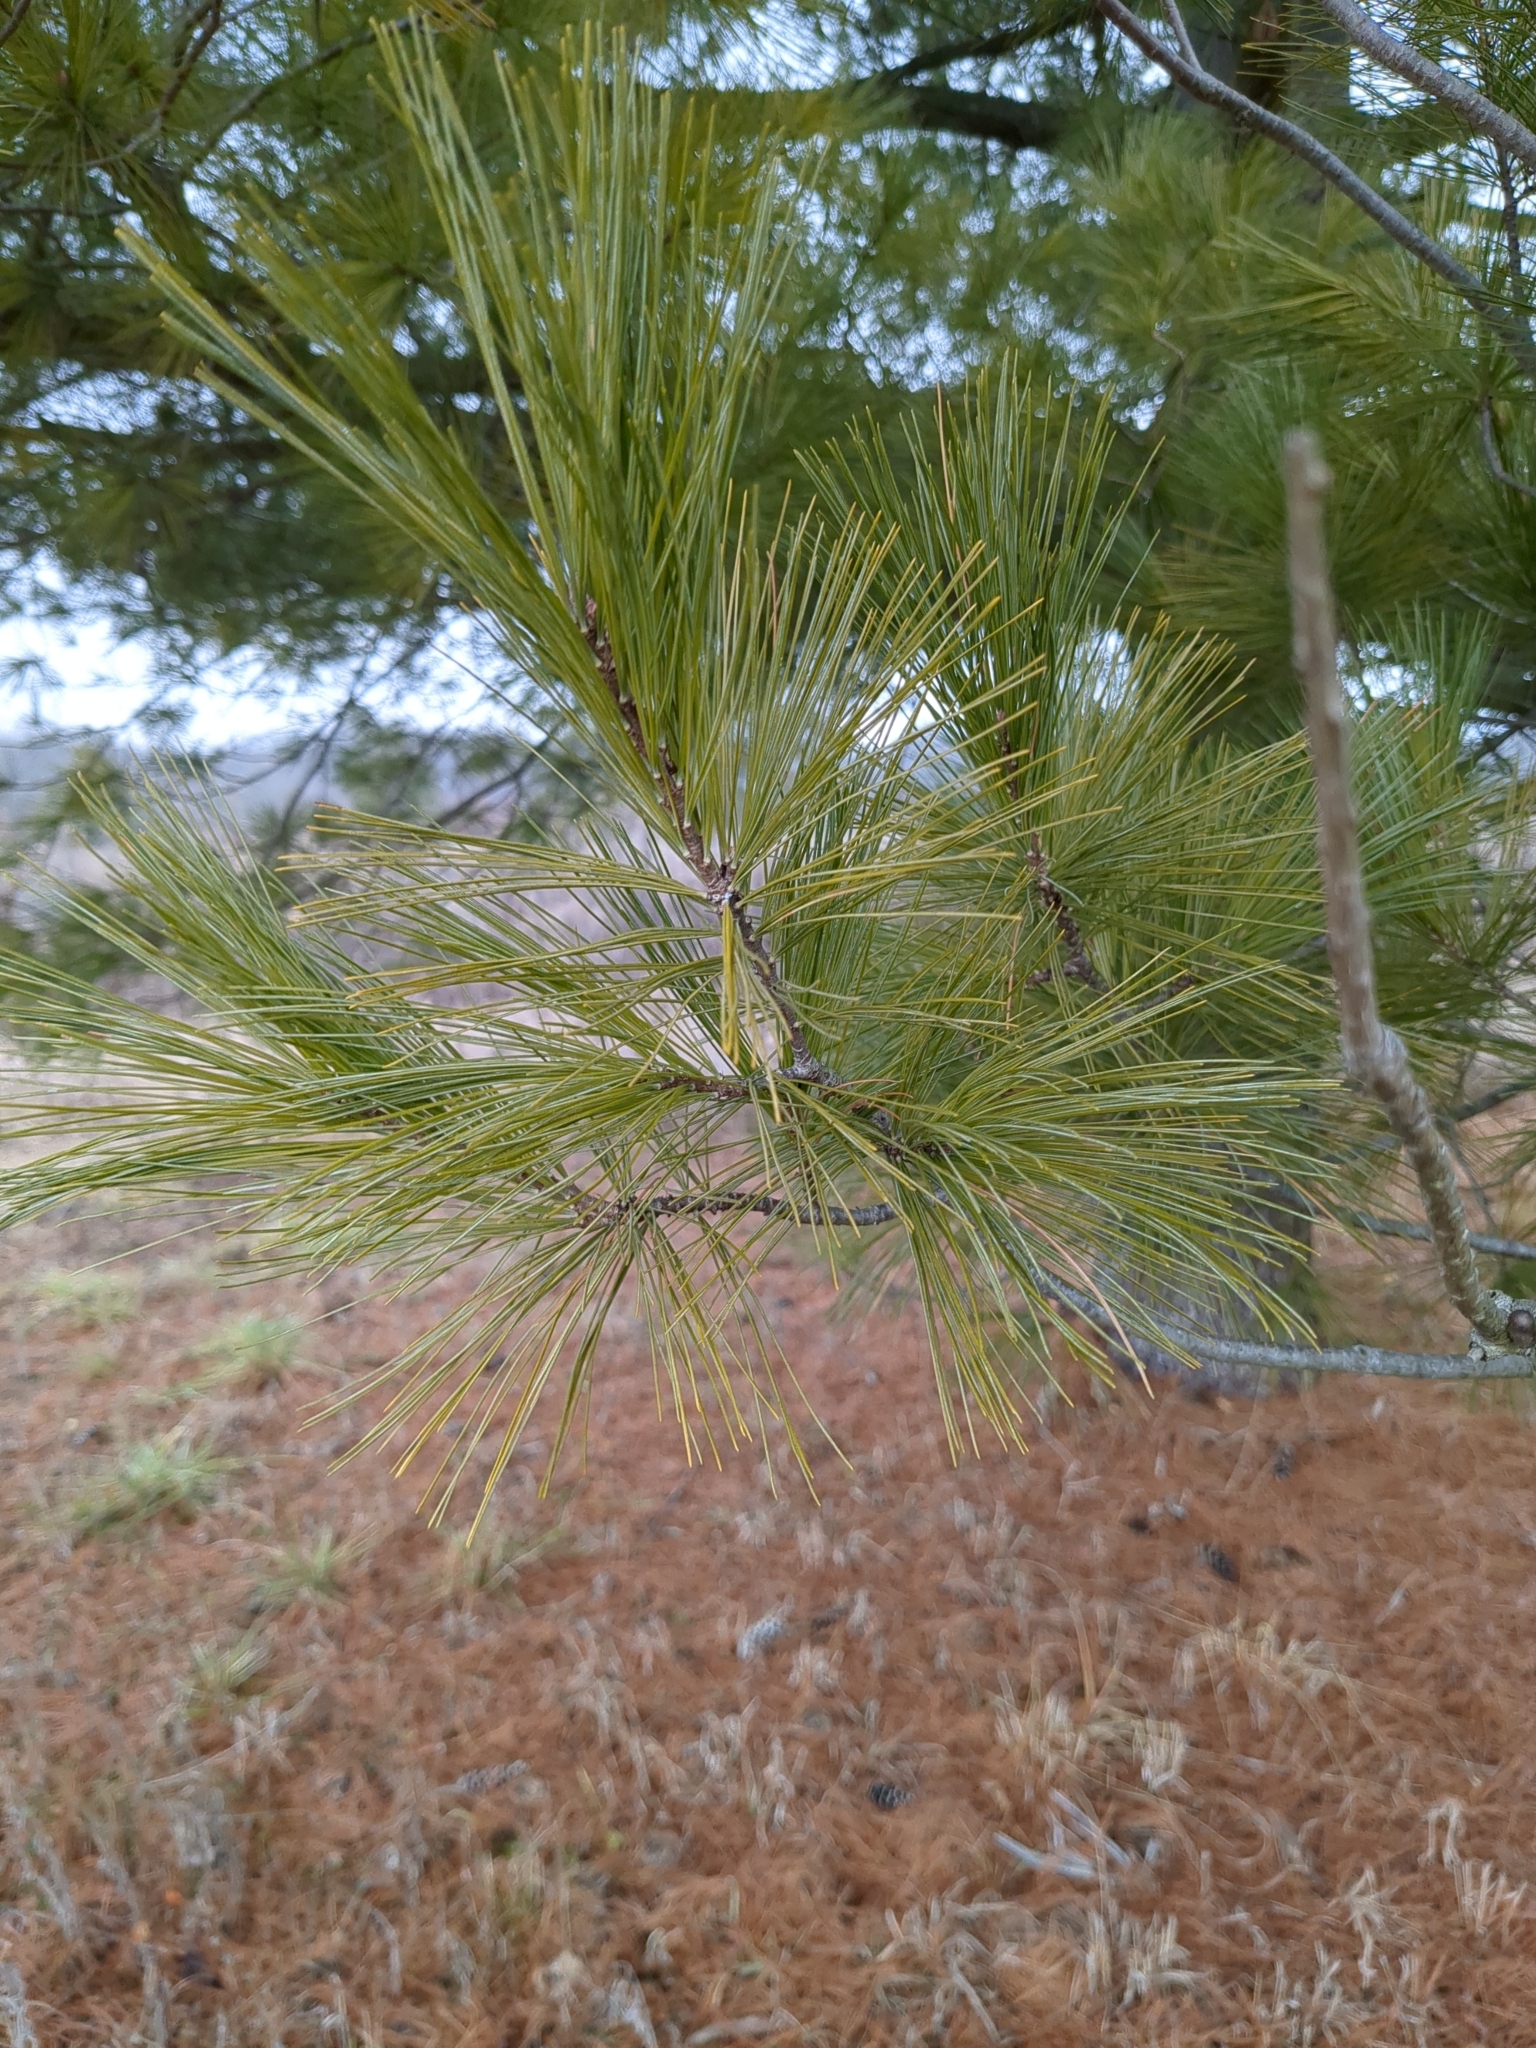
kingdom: Plantae
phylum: Tracheophyta
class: Pinopsida
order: Pinales
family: Pinaceae
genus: Pinus
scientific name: Pinus strobus
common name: Weymouth pine
